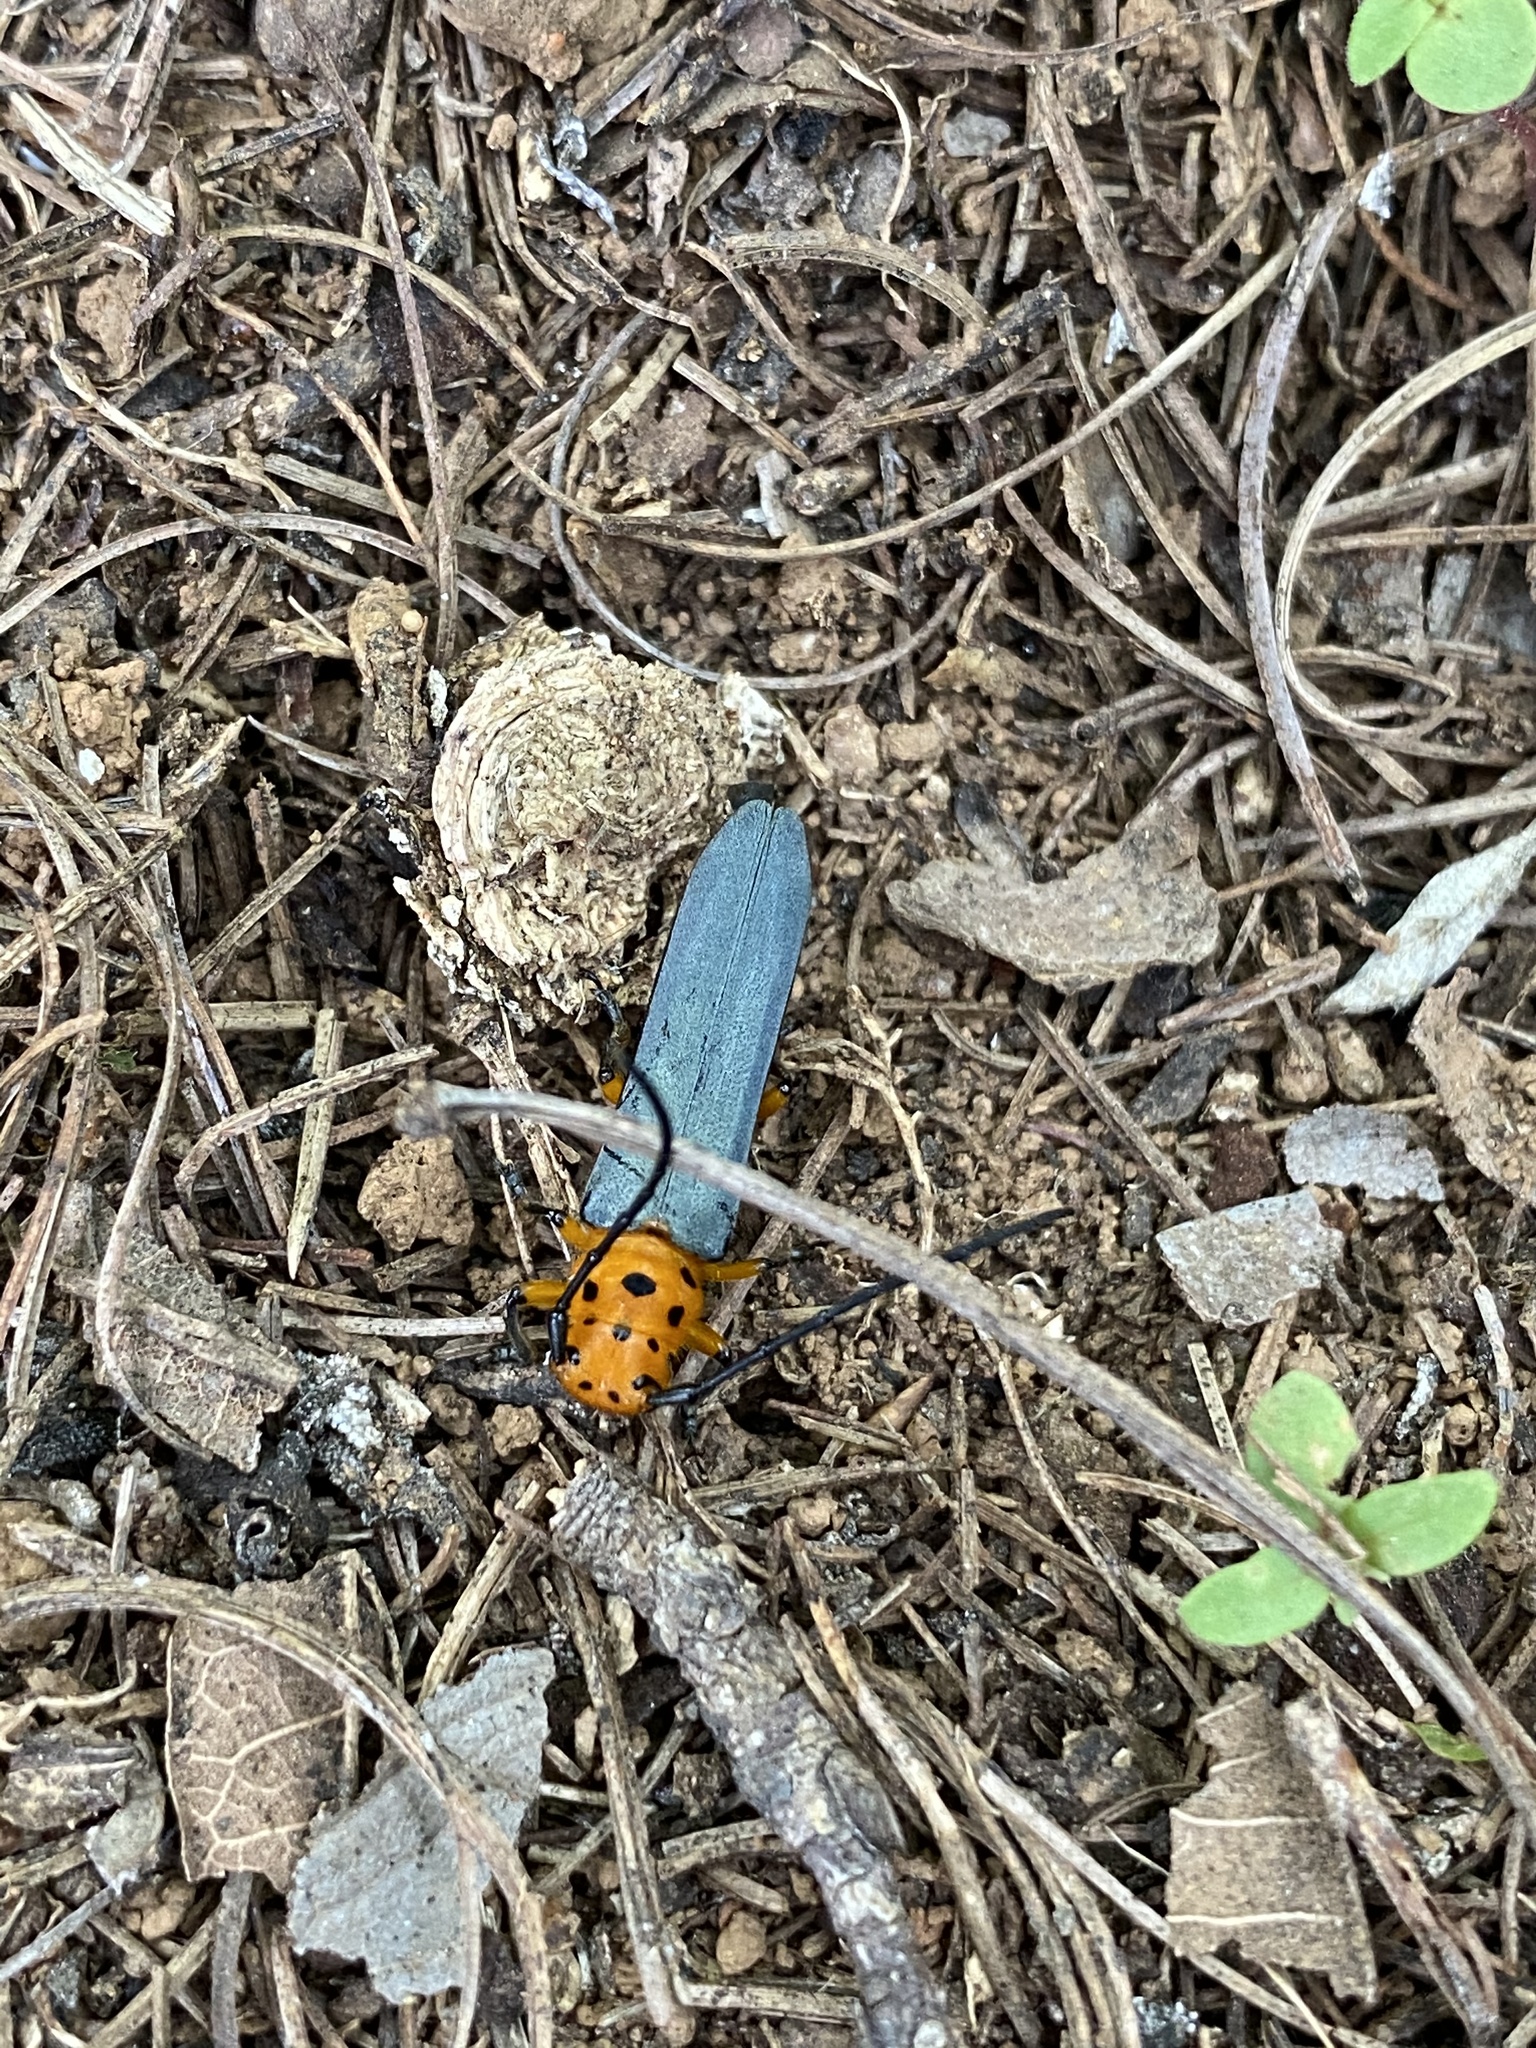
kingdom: Animalia
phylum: Arthropoda
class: Insecta
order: Coleoptera
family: Cerambycidae
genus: Pseudolinda
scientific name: Pseudolinda quinquepunctata
